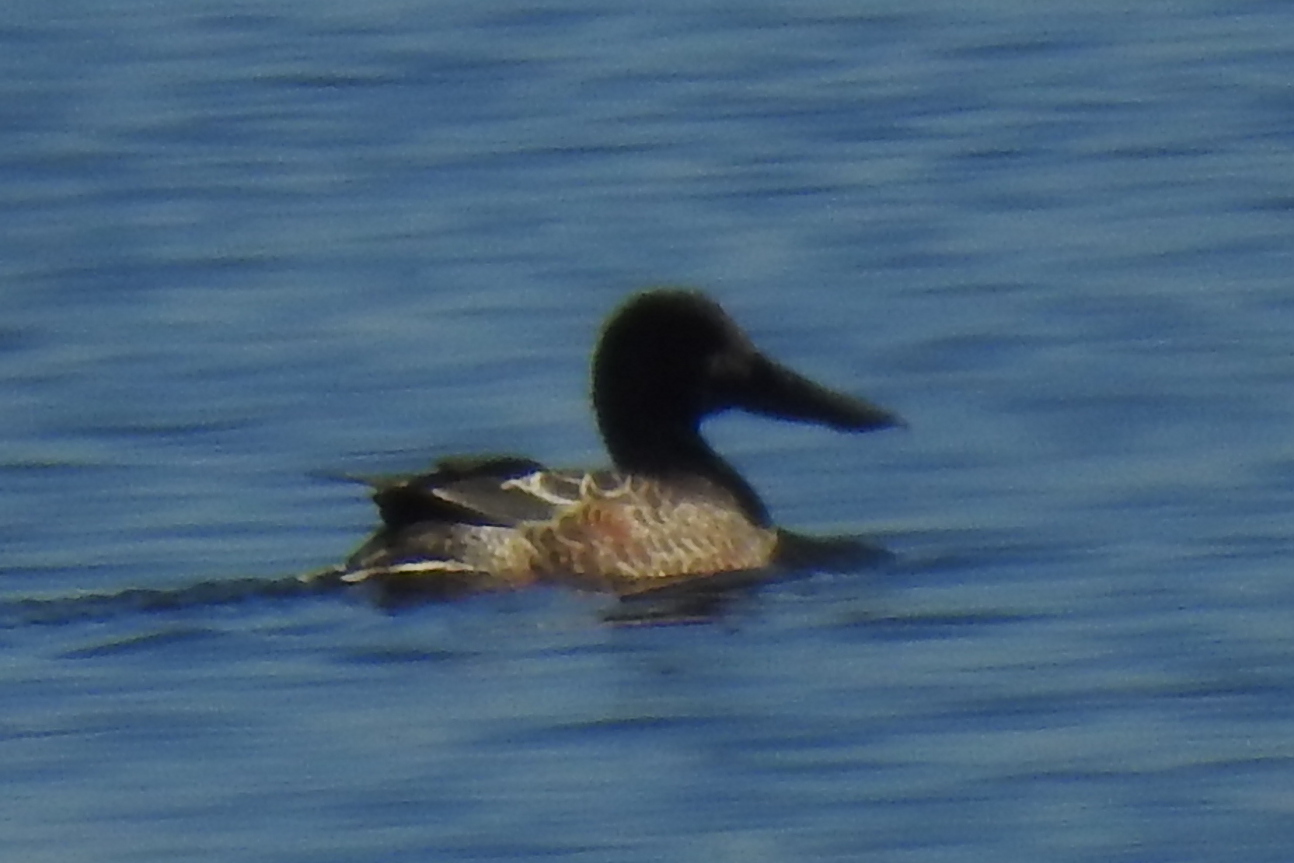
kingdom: Animalia
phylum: Chordata
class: Aves
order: Anseriformes
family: Anatidae
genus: Spatula
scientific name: Spatula clypeata
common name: Northern shoveler
